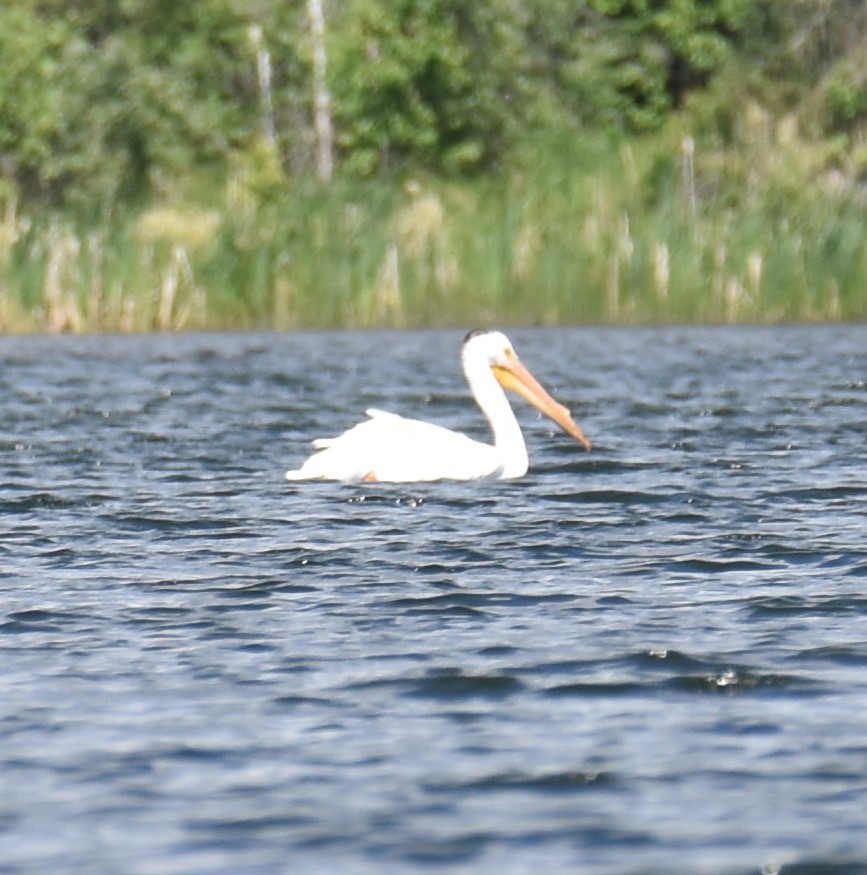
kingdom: Animalia
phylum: Chordata
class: Aves
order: Pelecaniformes
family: Pelecanidae
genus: Pelecanus
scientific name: Pelecanus erythrorhynchos
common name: American white pelican
